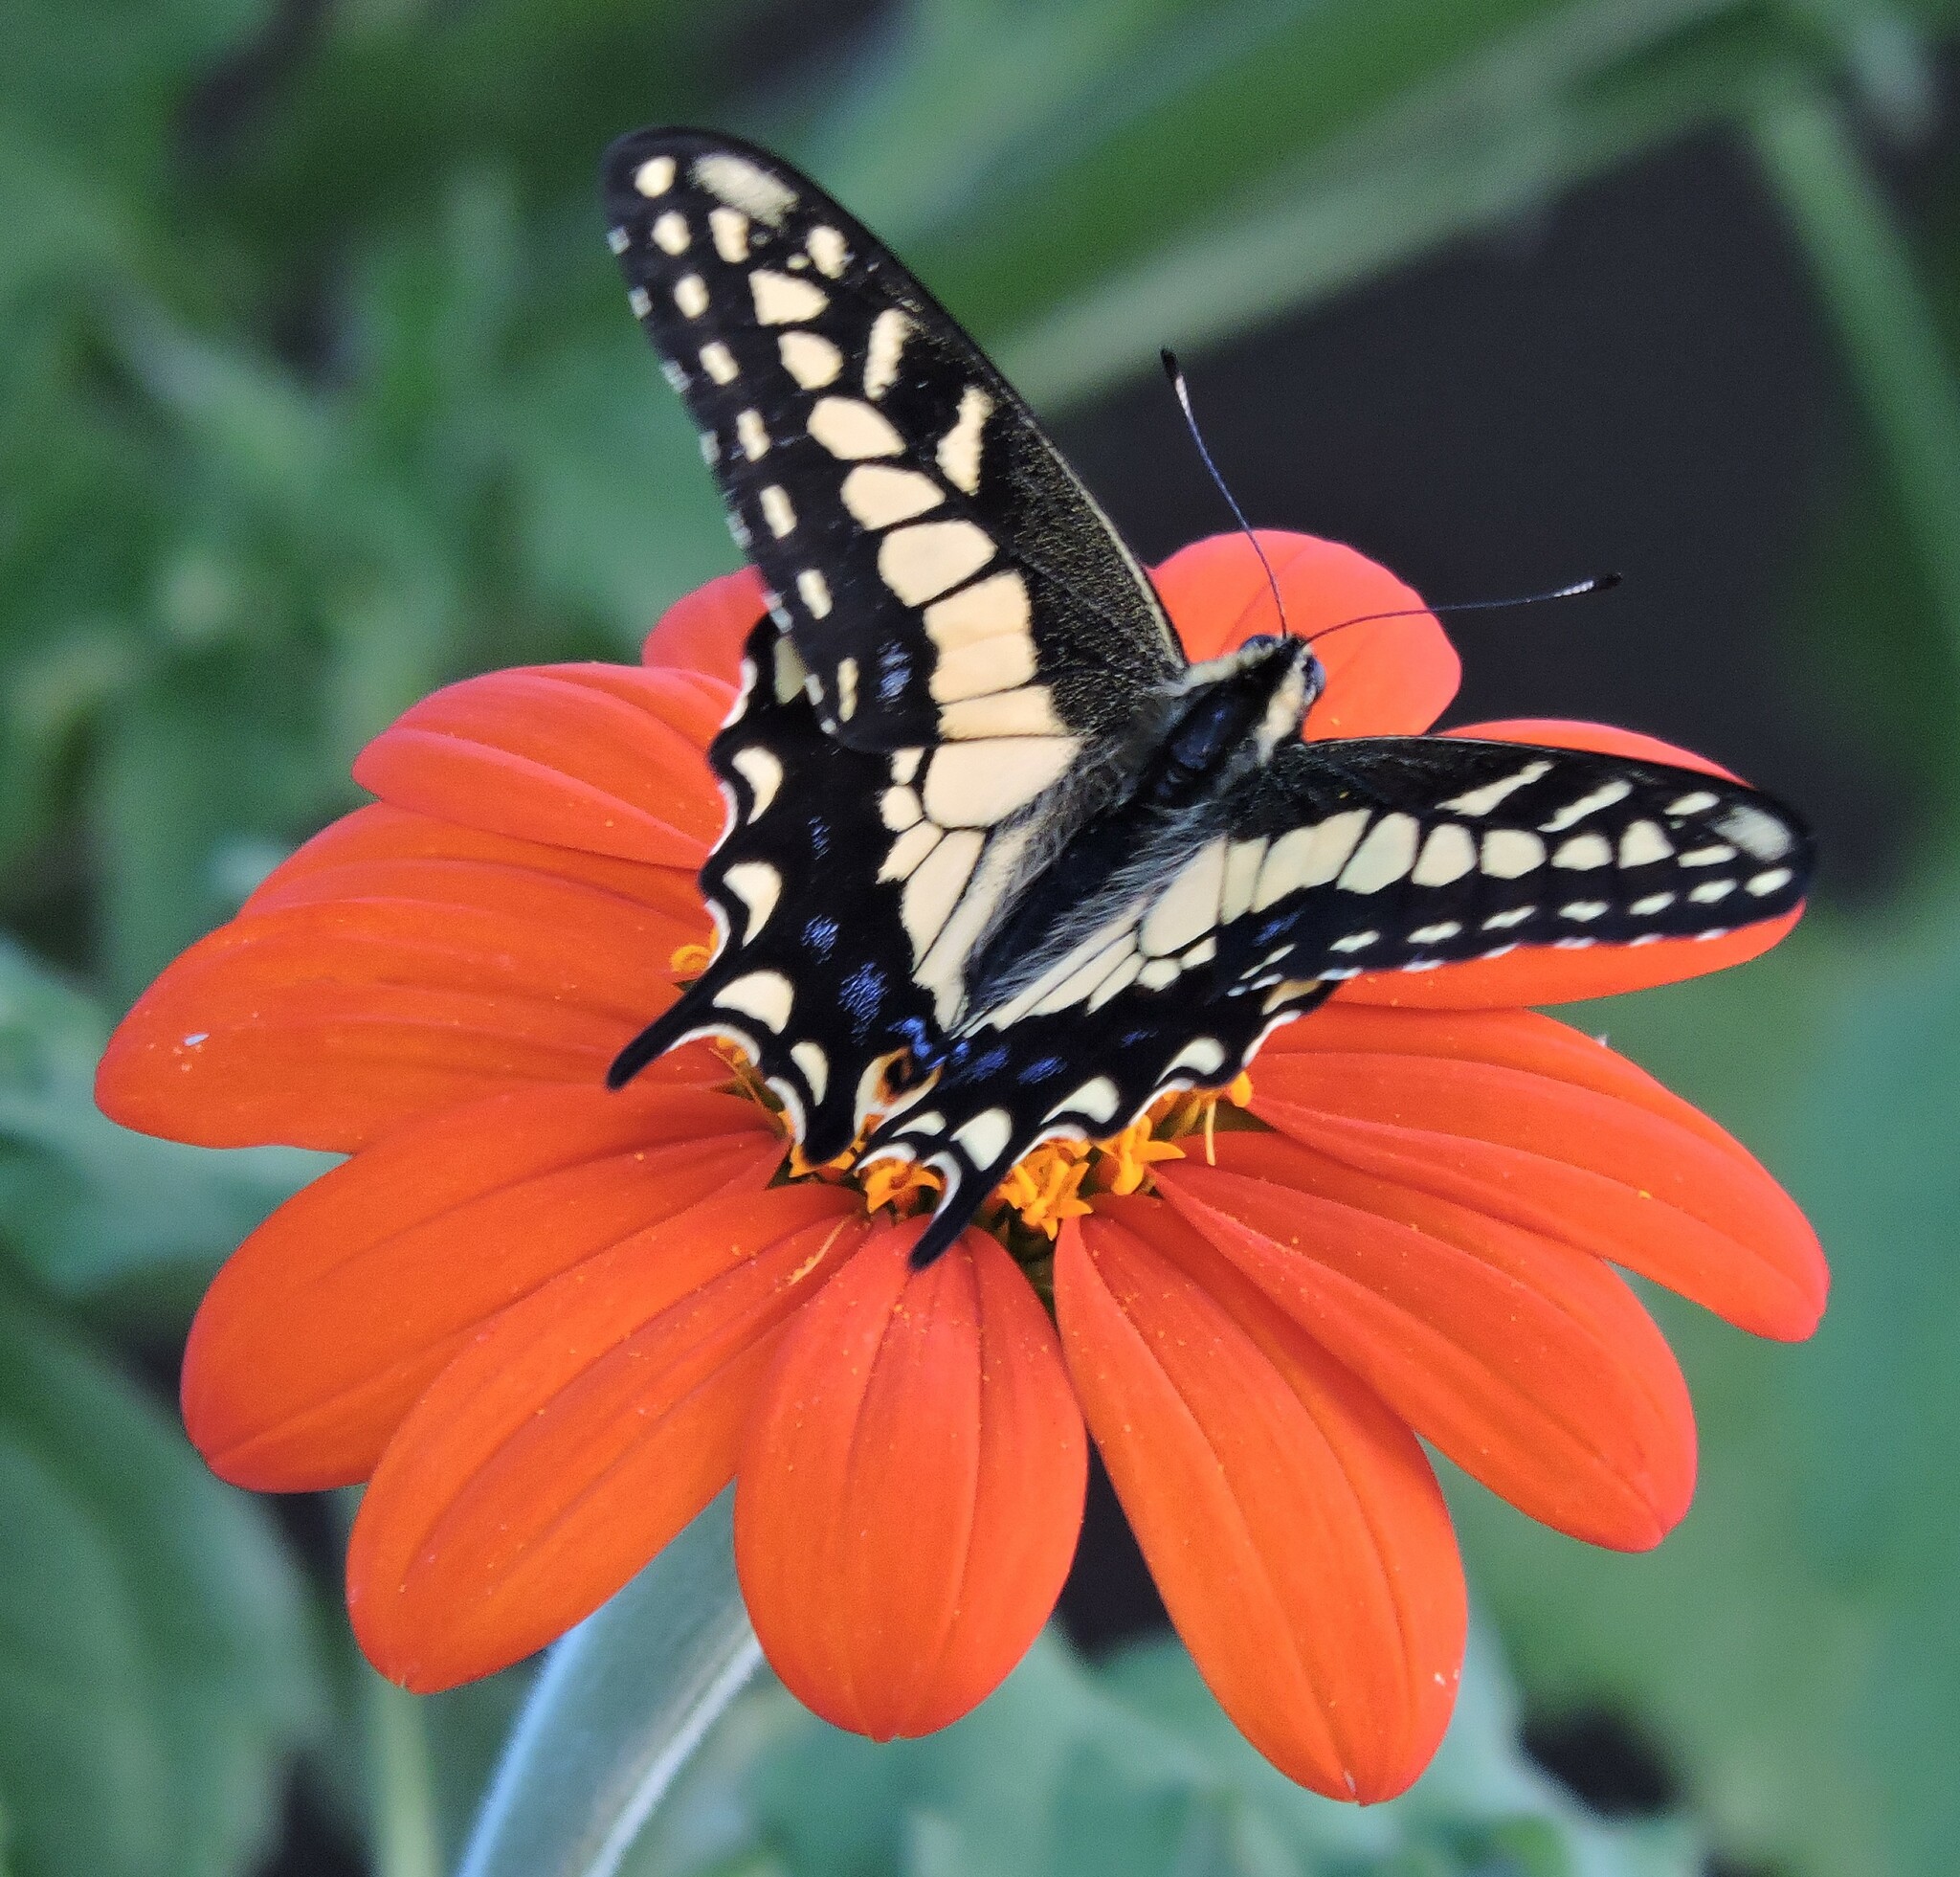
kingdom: Animalia
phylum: Arthropoda
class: Insecta
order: Lepidoptera
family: Papilionidae
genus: Papilio
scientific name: Papilio zelicaon
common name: Anise swallowtail
